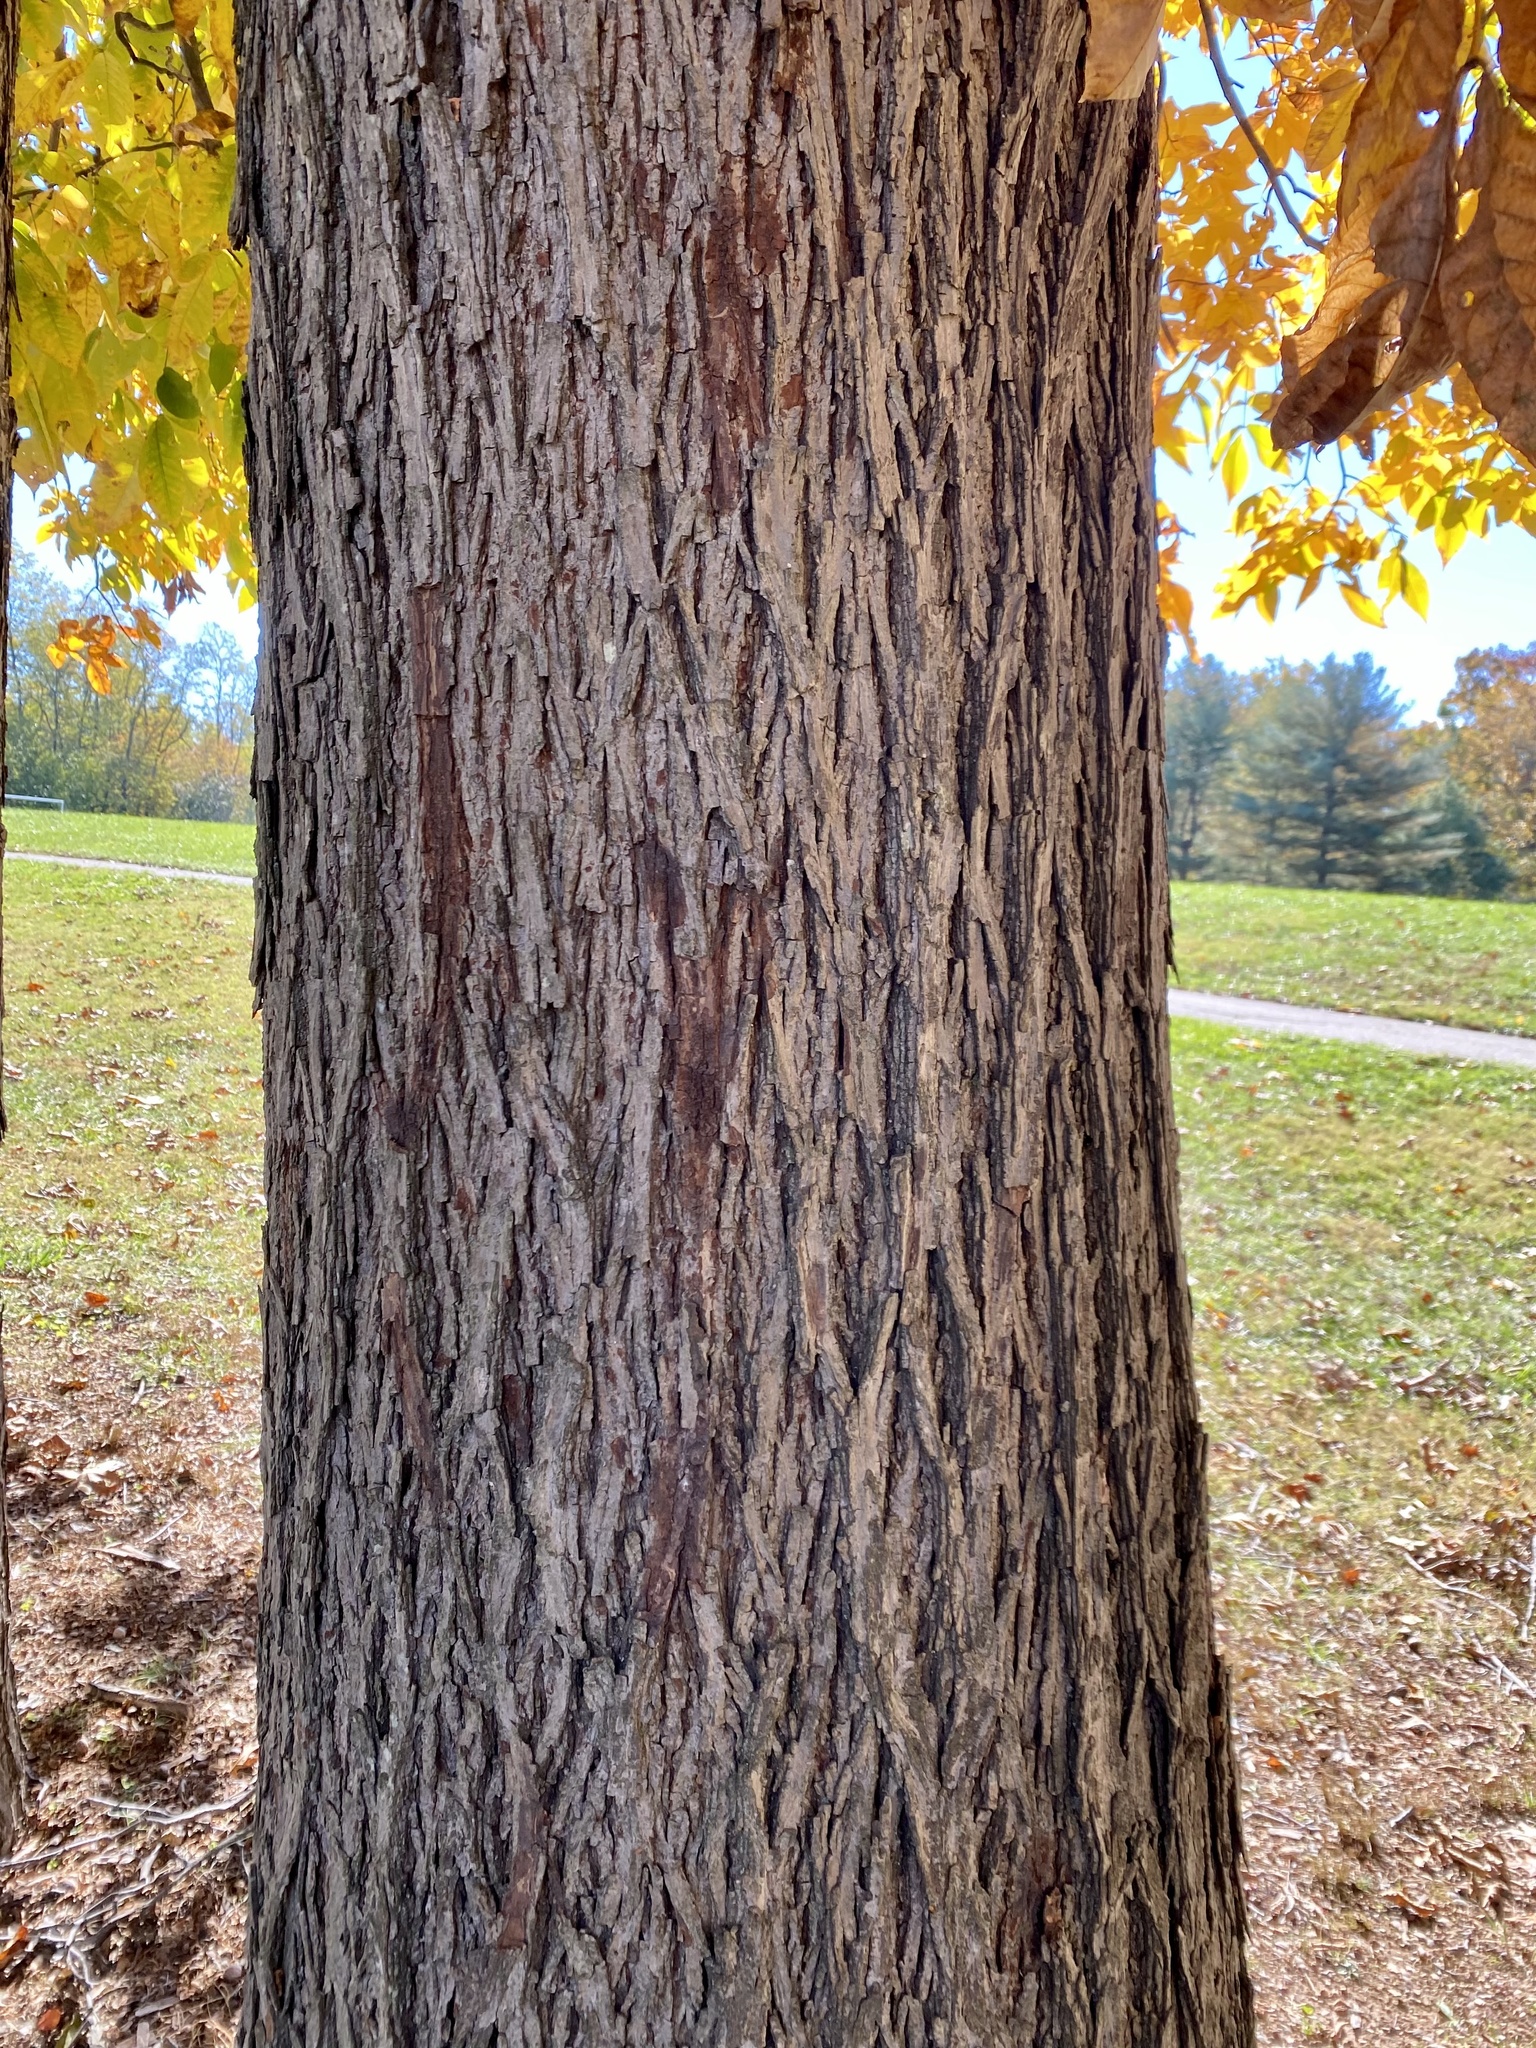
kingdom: Plantae
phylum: Tracheophyta
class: Magnoliopsida
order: Fagales
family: Juglandaceae
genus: Carya
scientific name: Carya glabra
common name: Pignut hickory
